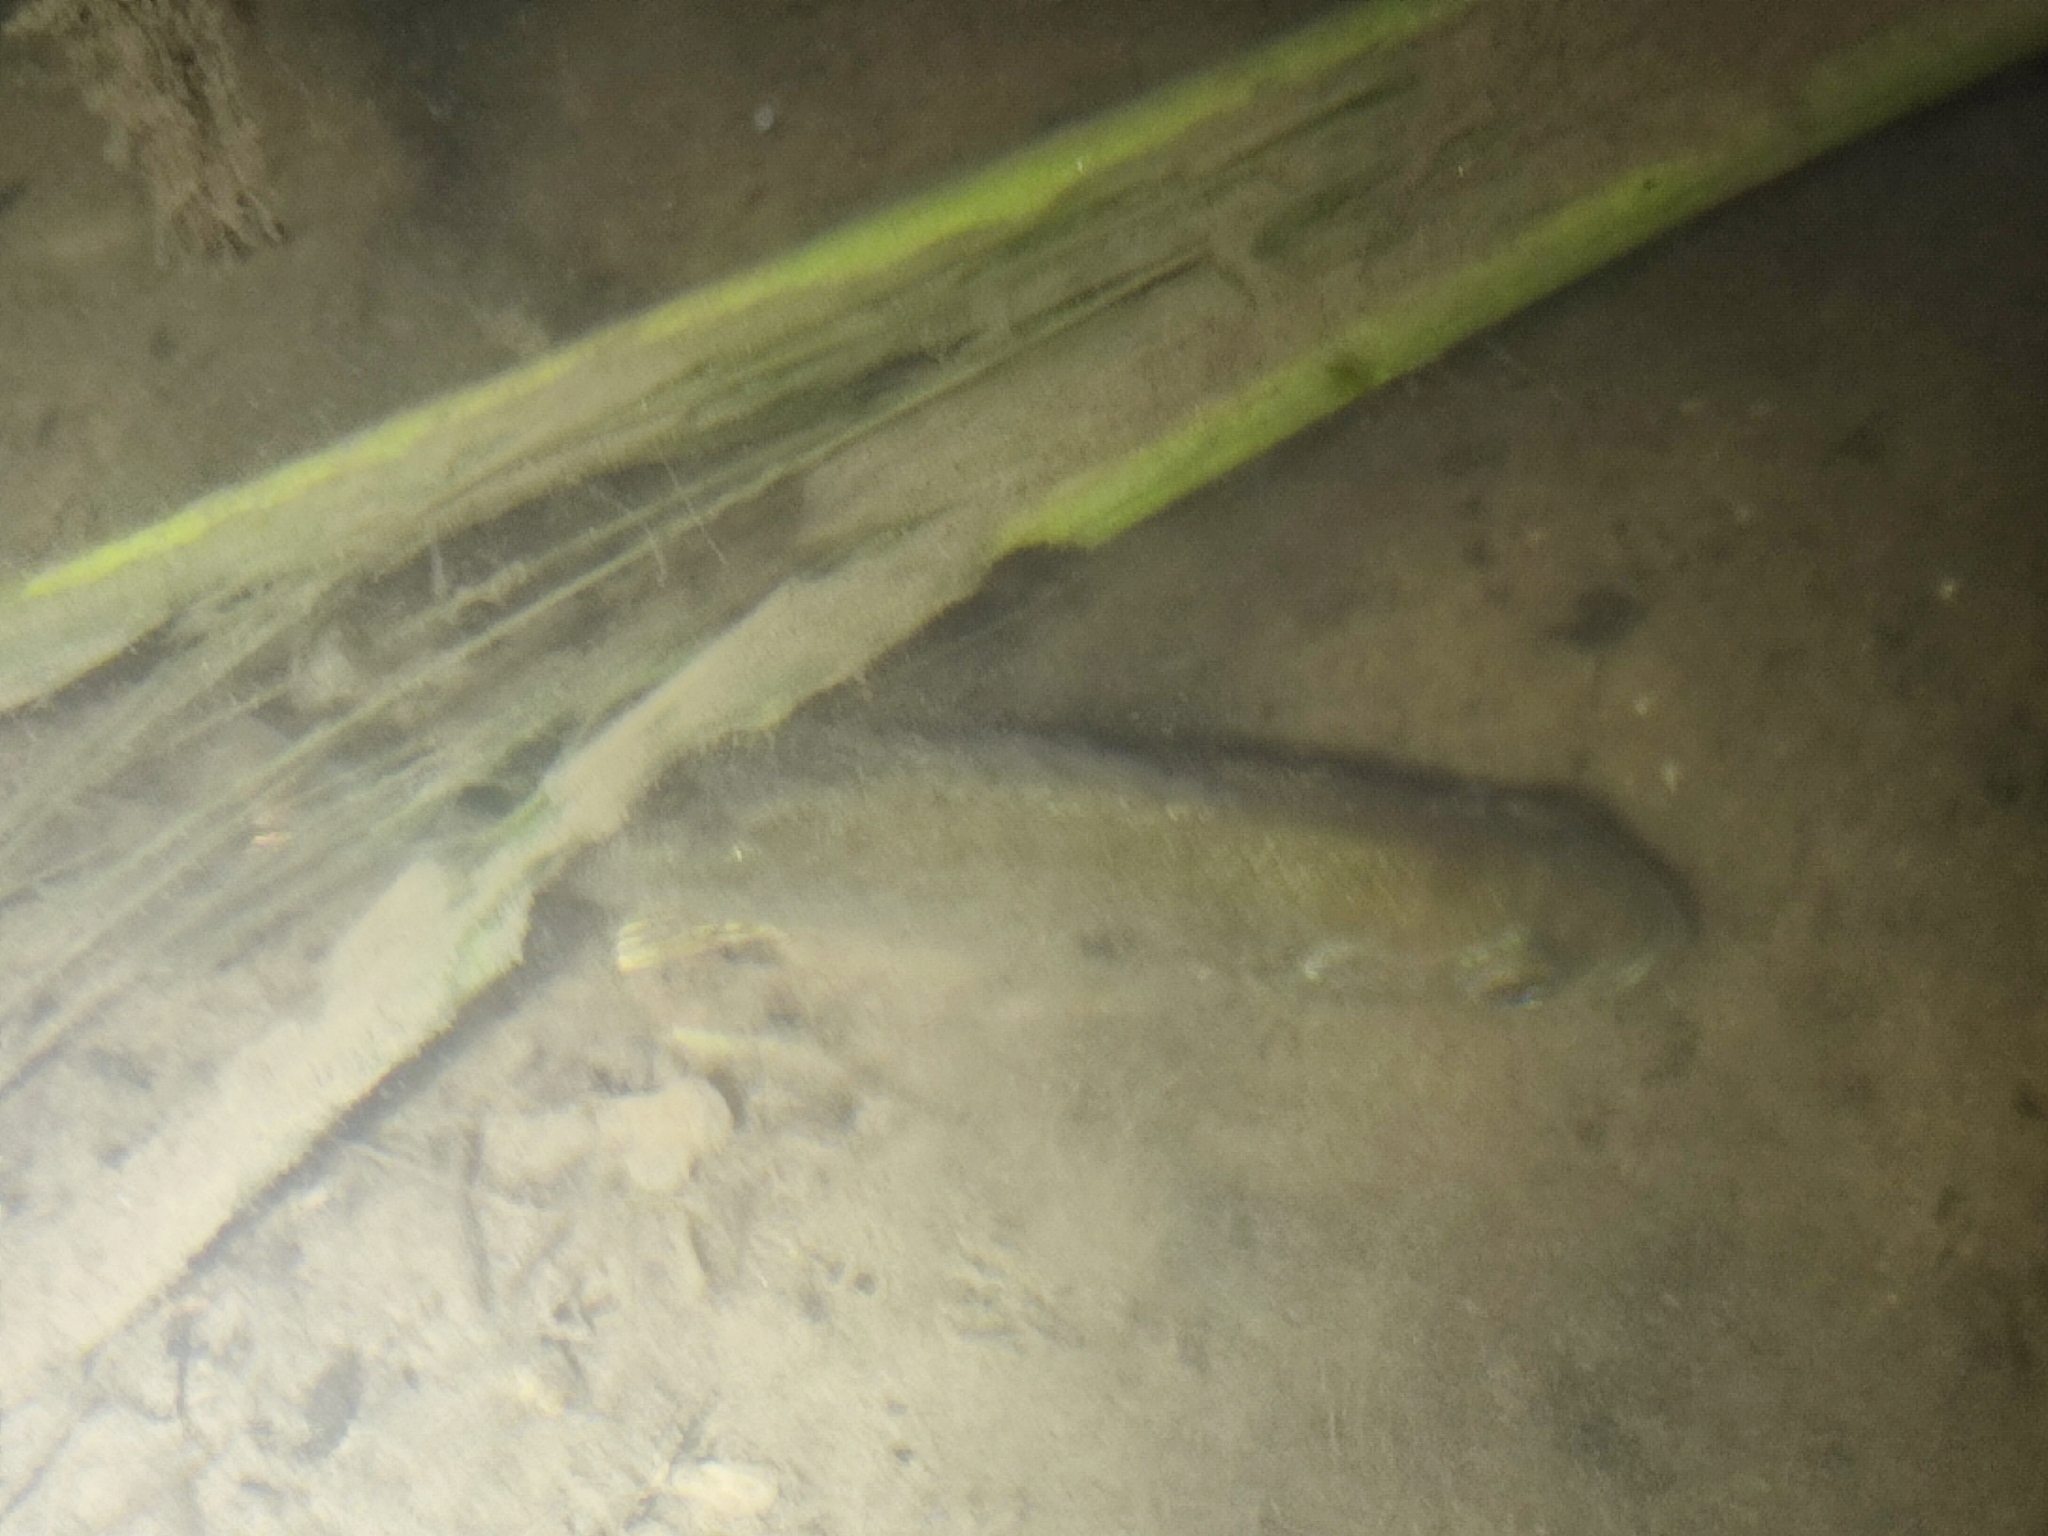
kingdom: Animalia
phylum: Chordata
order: Perciformes
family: Centrarchidae
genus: Lepomis
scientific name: Lepomis gibbosus
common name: Pumpkinseed
